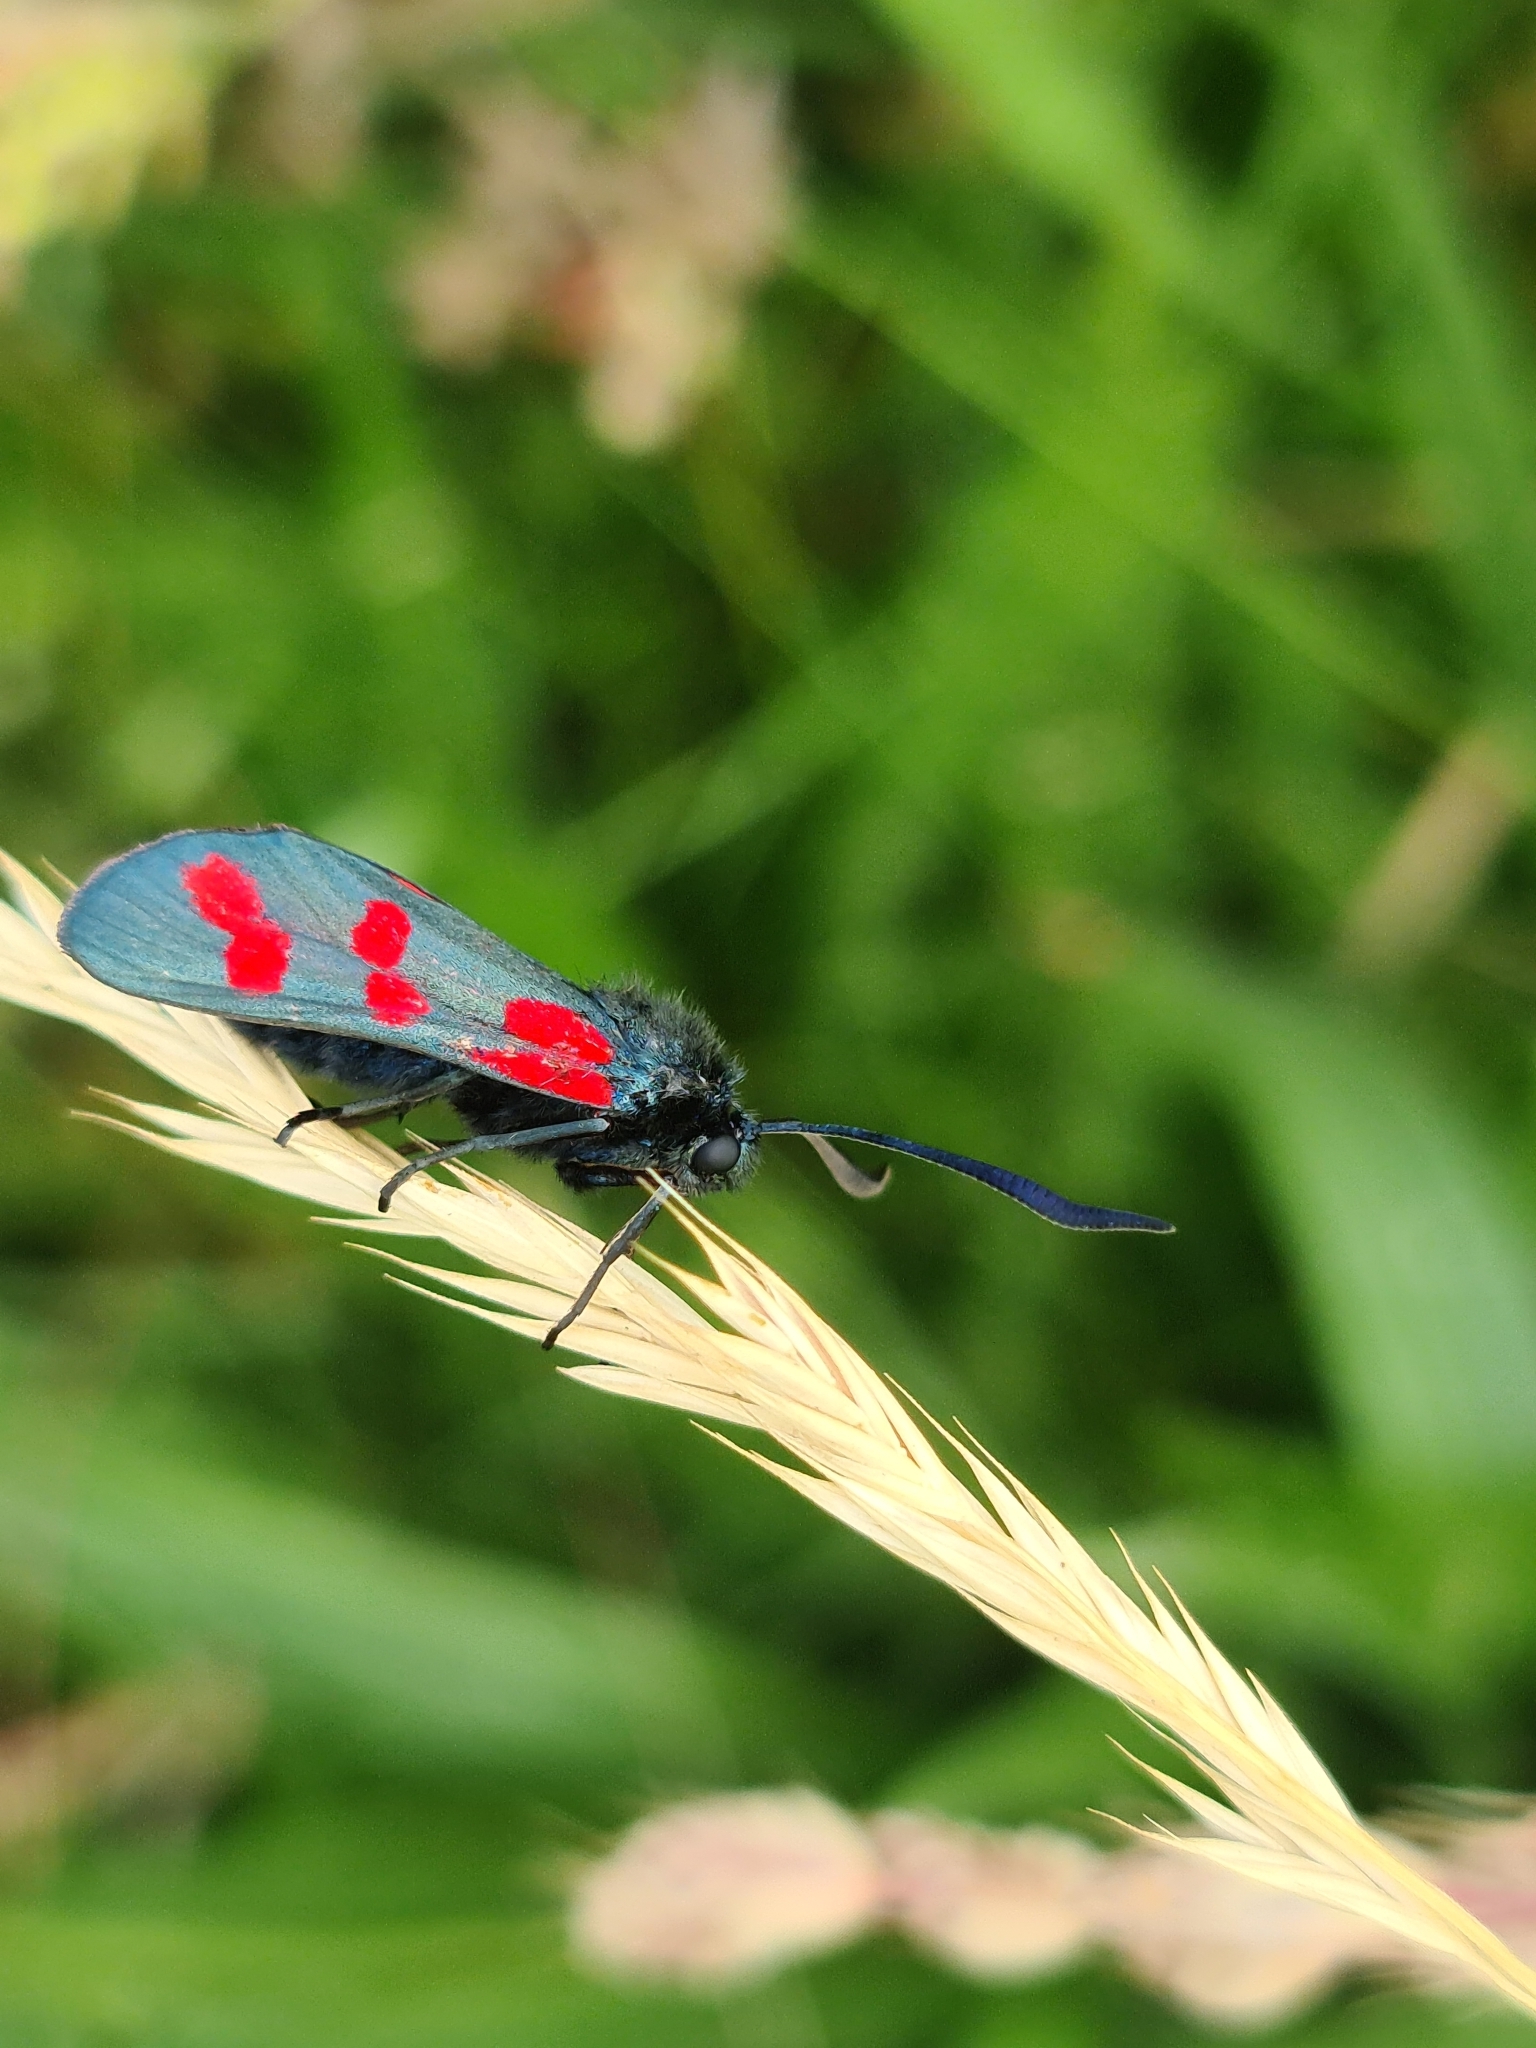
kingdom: Animalia
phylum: Arthropoda
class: Insecta
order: Lepidoptera
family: Zygaenidae
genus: Zygaena
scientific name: Zygaena filipendulae
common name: Six-spot burnet
